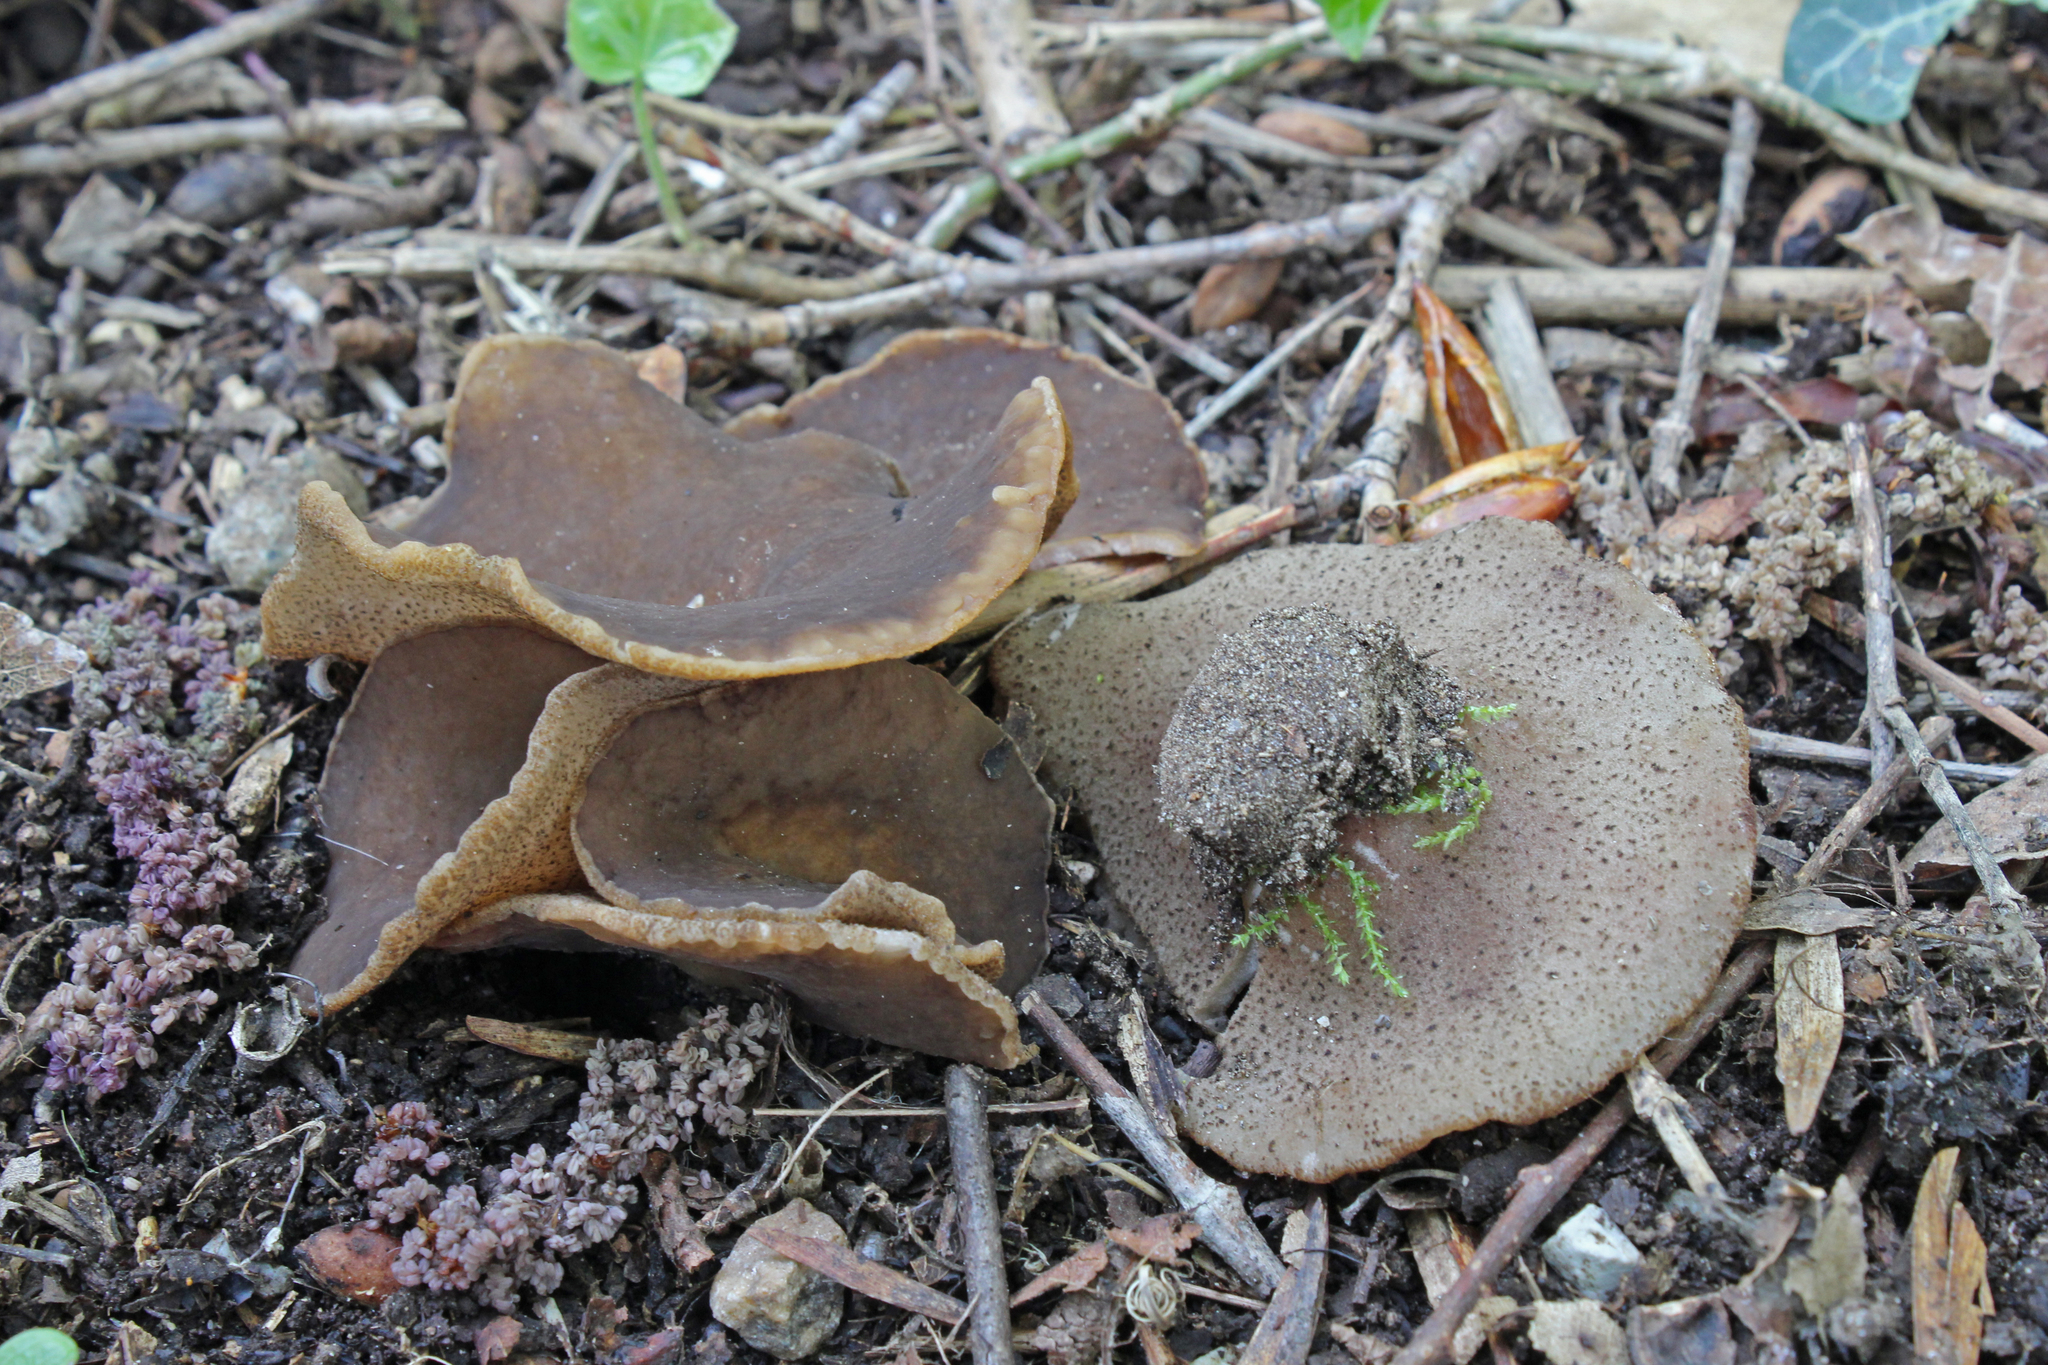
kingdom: Fungi
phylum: Ascomycota
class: Pezizomycetes
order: Pezizales
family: Morchellaceae
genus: Disciotis
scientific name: Disciotis venosa
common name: Bleach cup
